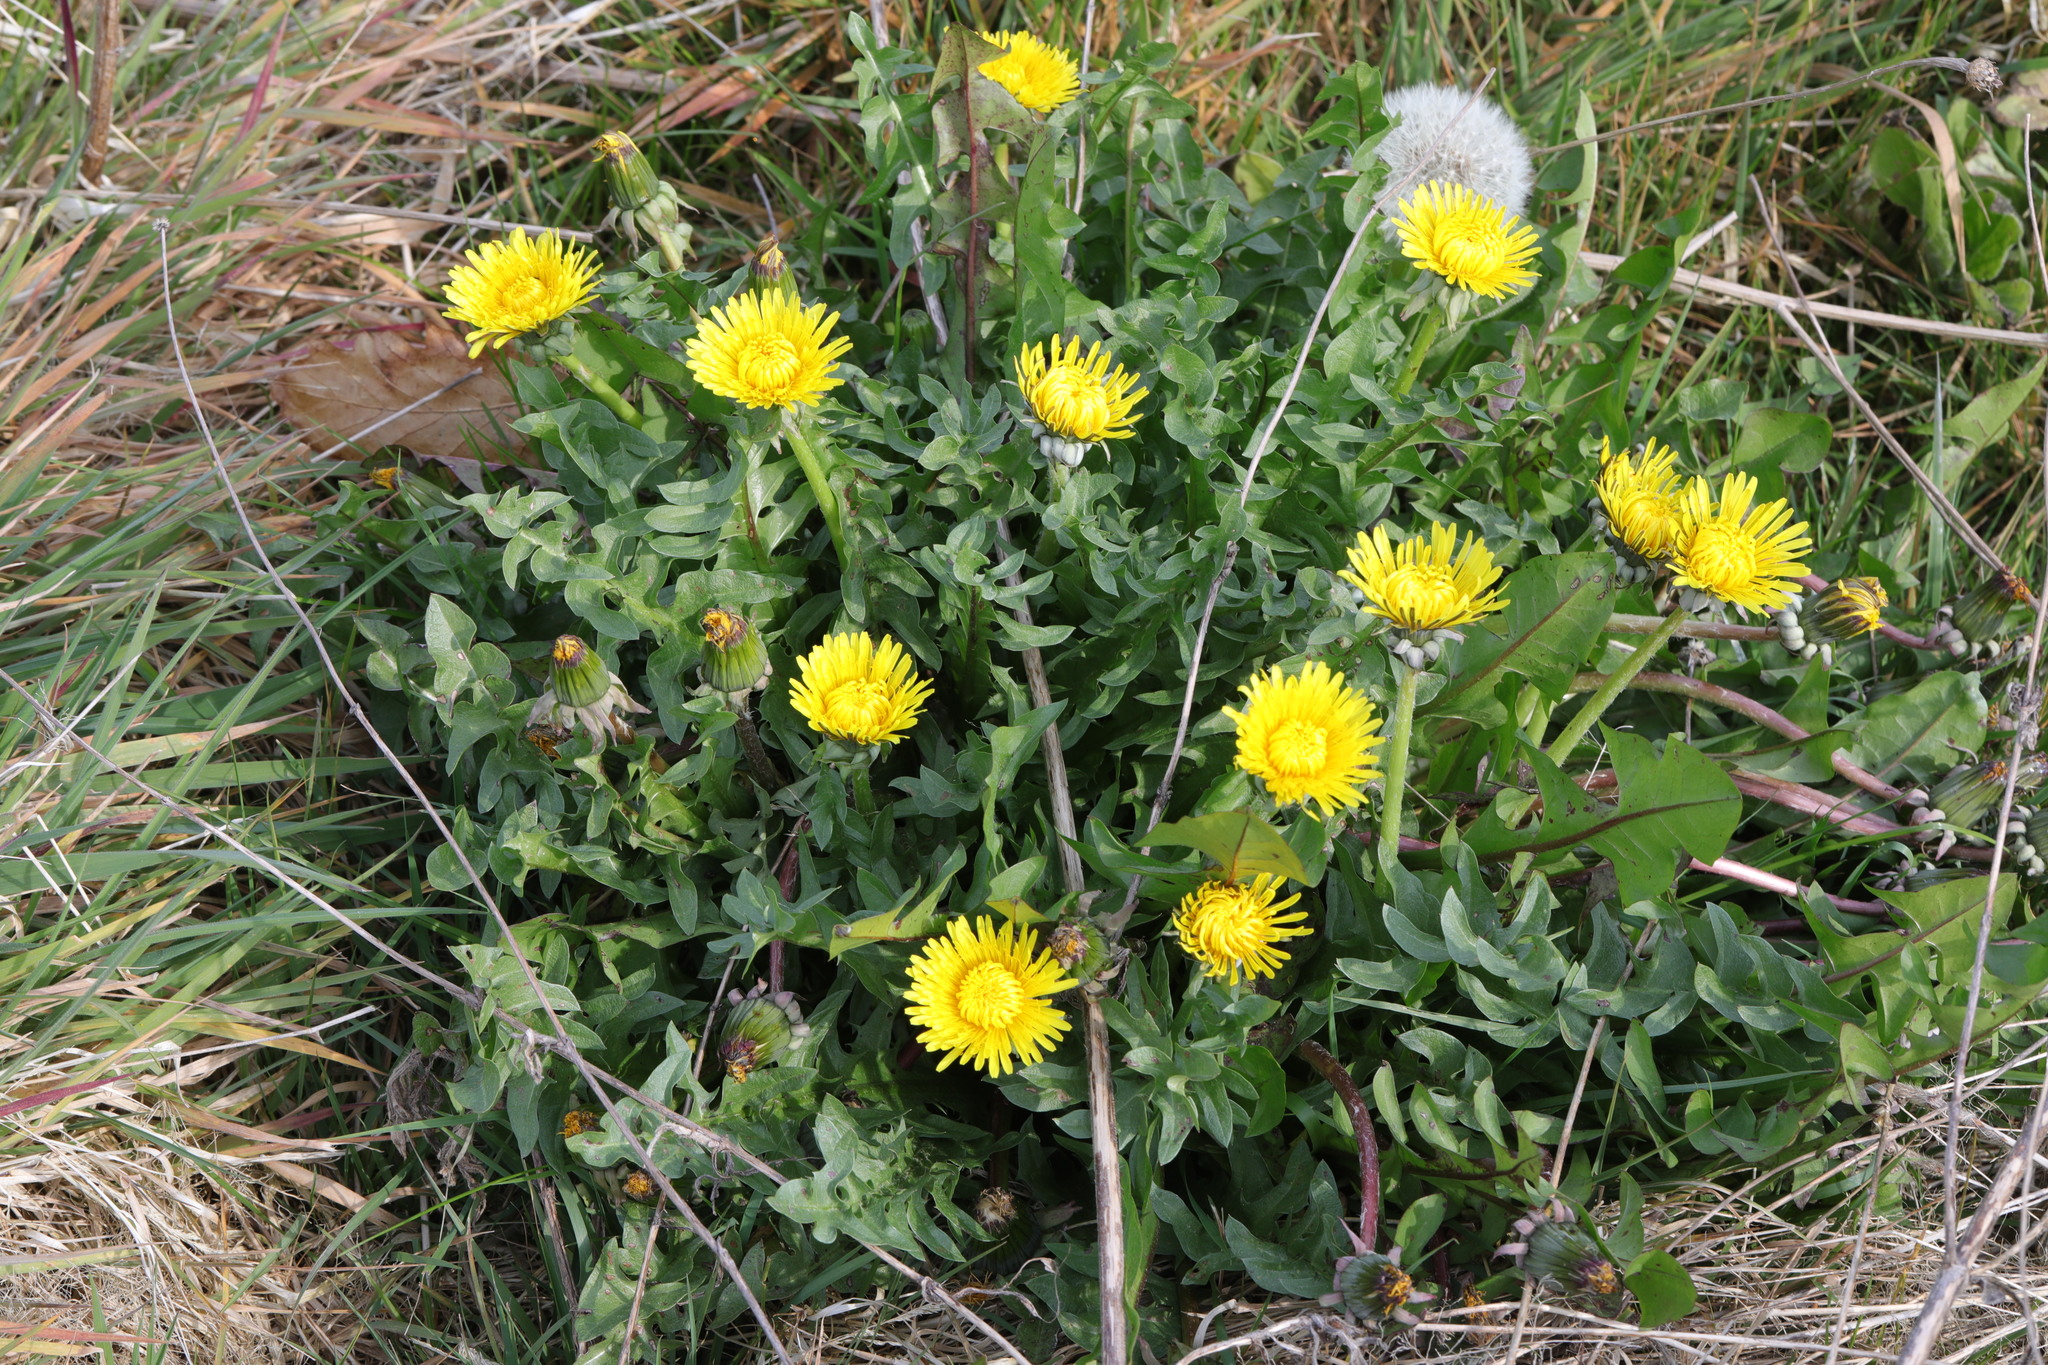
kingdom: Plantae
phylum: Tracheophyta
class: Magnoliopsida
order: Asterales
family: Asteraceae
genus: Taraxacum
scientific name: Taraxacum officinale
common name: Common dandelion
